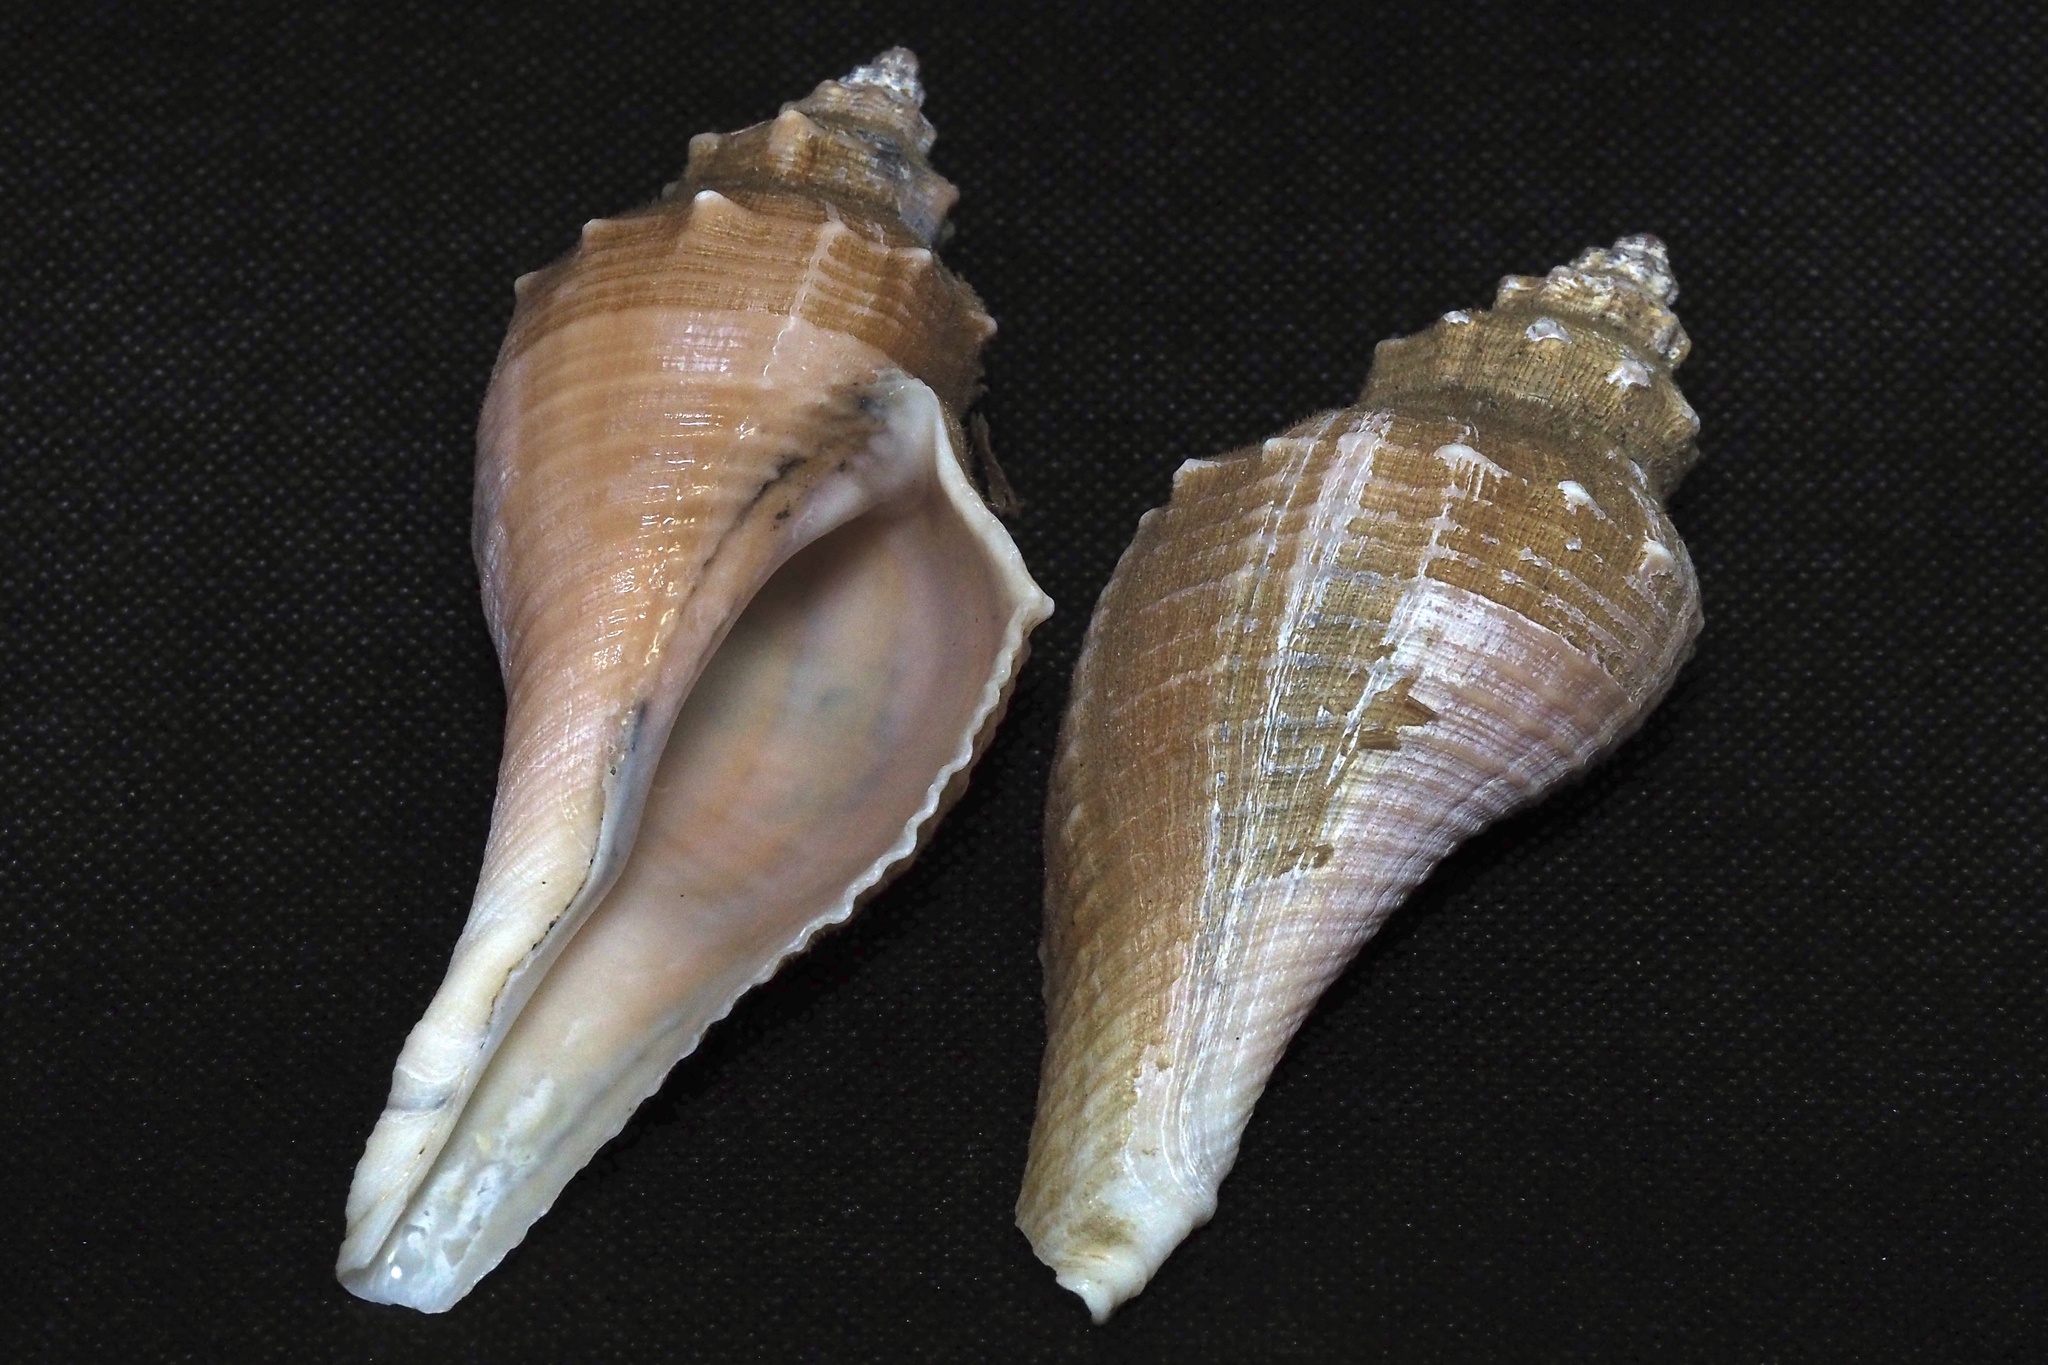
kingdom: Animalia
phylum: Mollusca
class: Gastropoda
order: Neogastropoda
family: Melongenidae
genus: Hemifusus
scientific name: Hemifusus tuba
